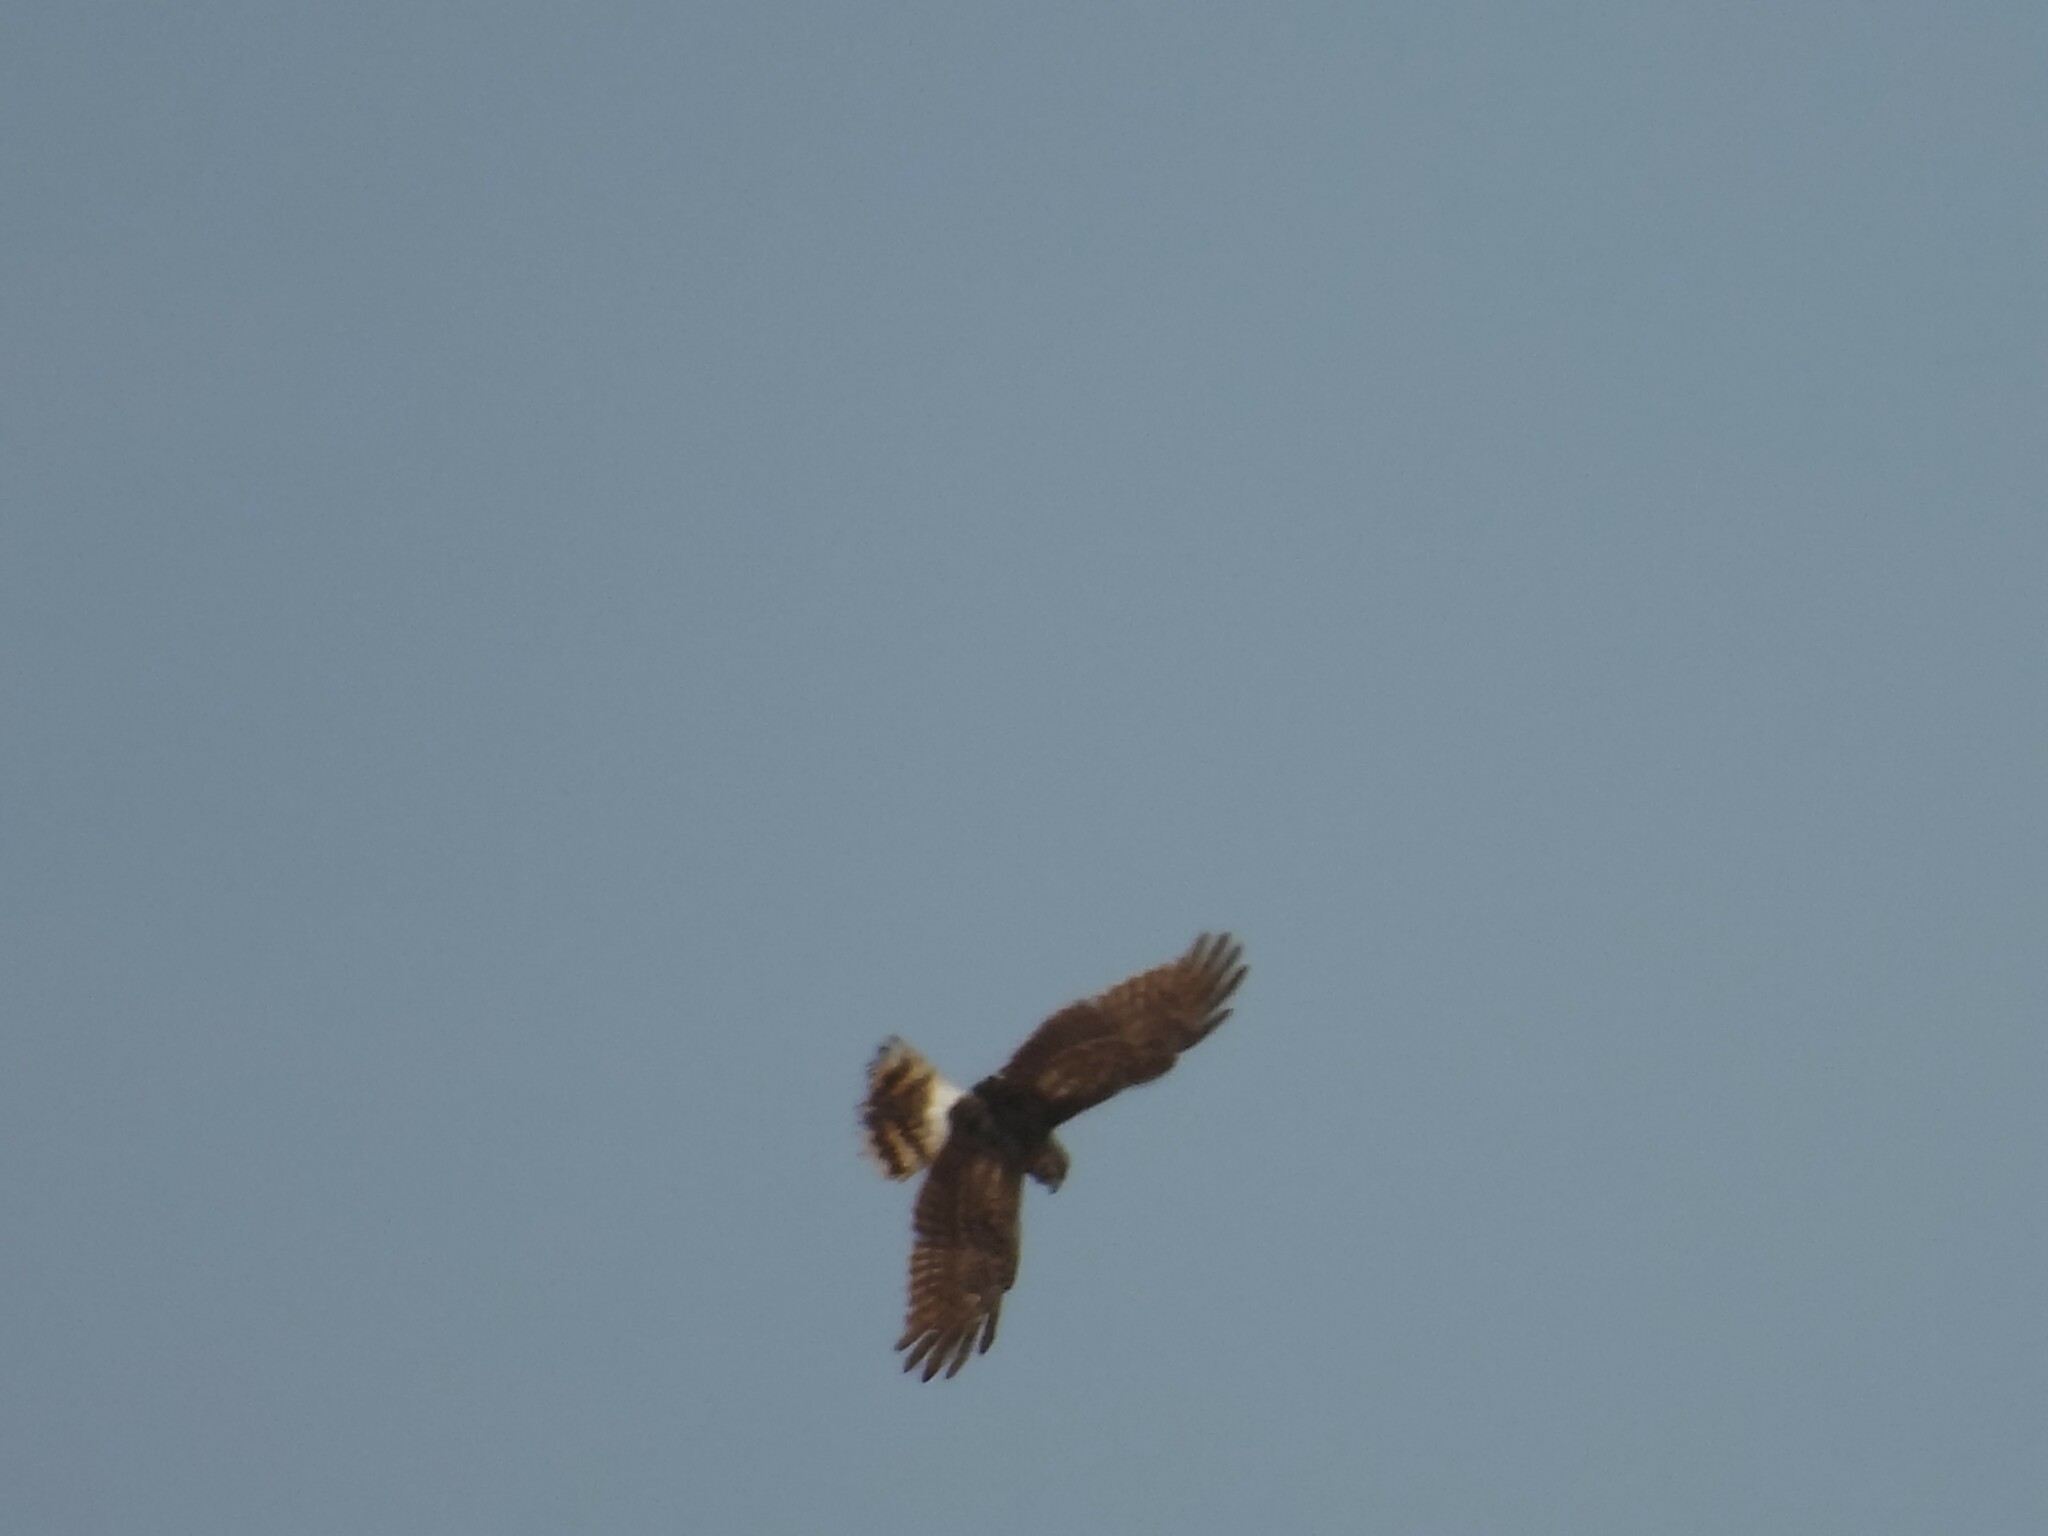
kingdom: Animalia
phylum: Chordata
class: Aves
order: Accipitriformes
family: Accipitridae
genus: Circus
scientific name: Circus cyaneus
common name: Hen harrier
